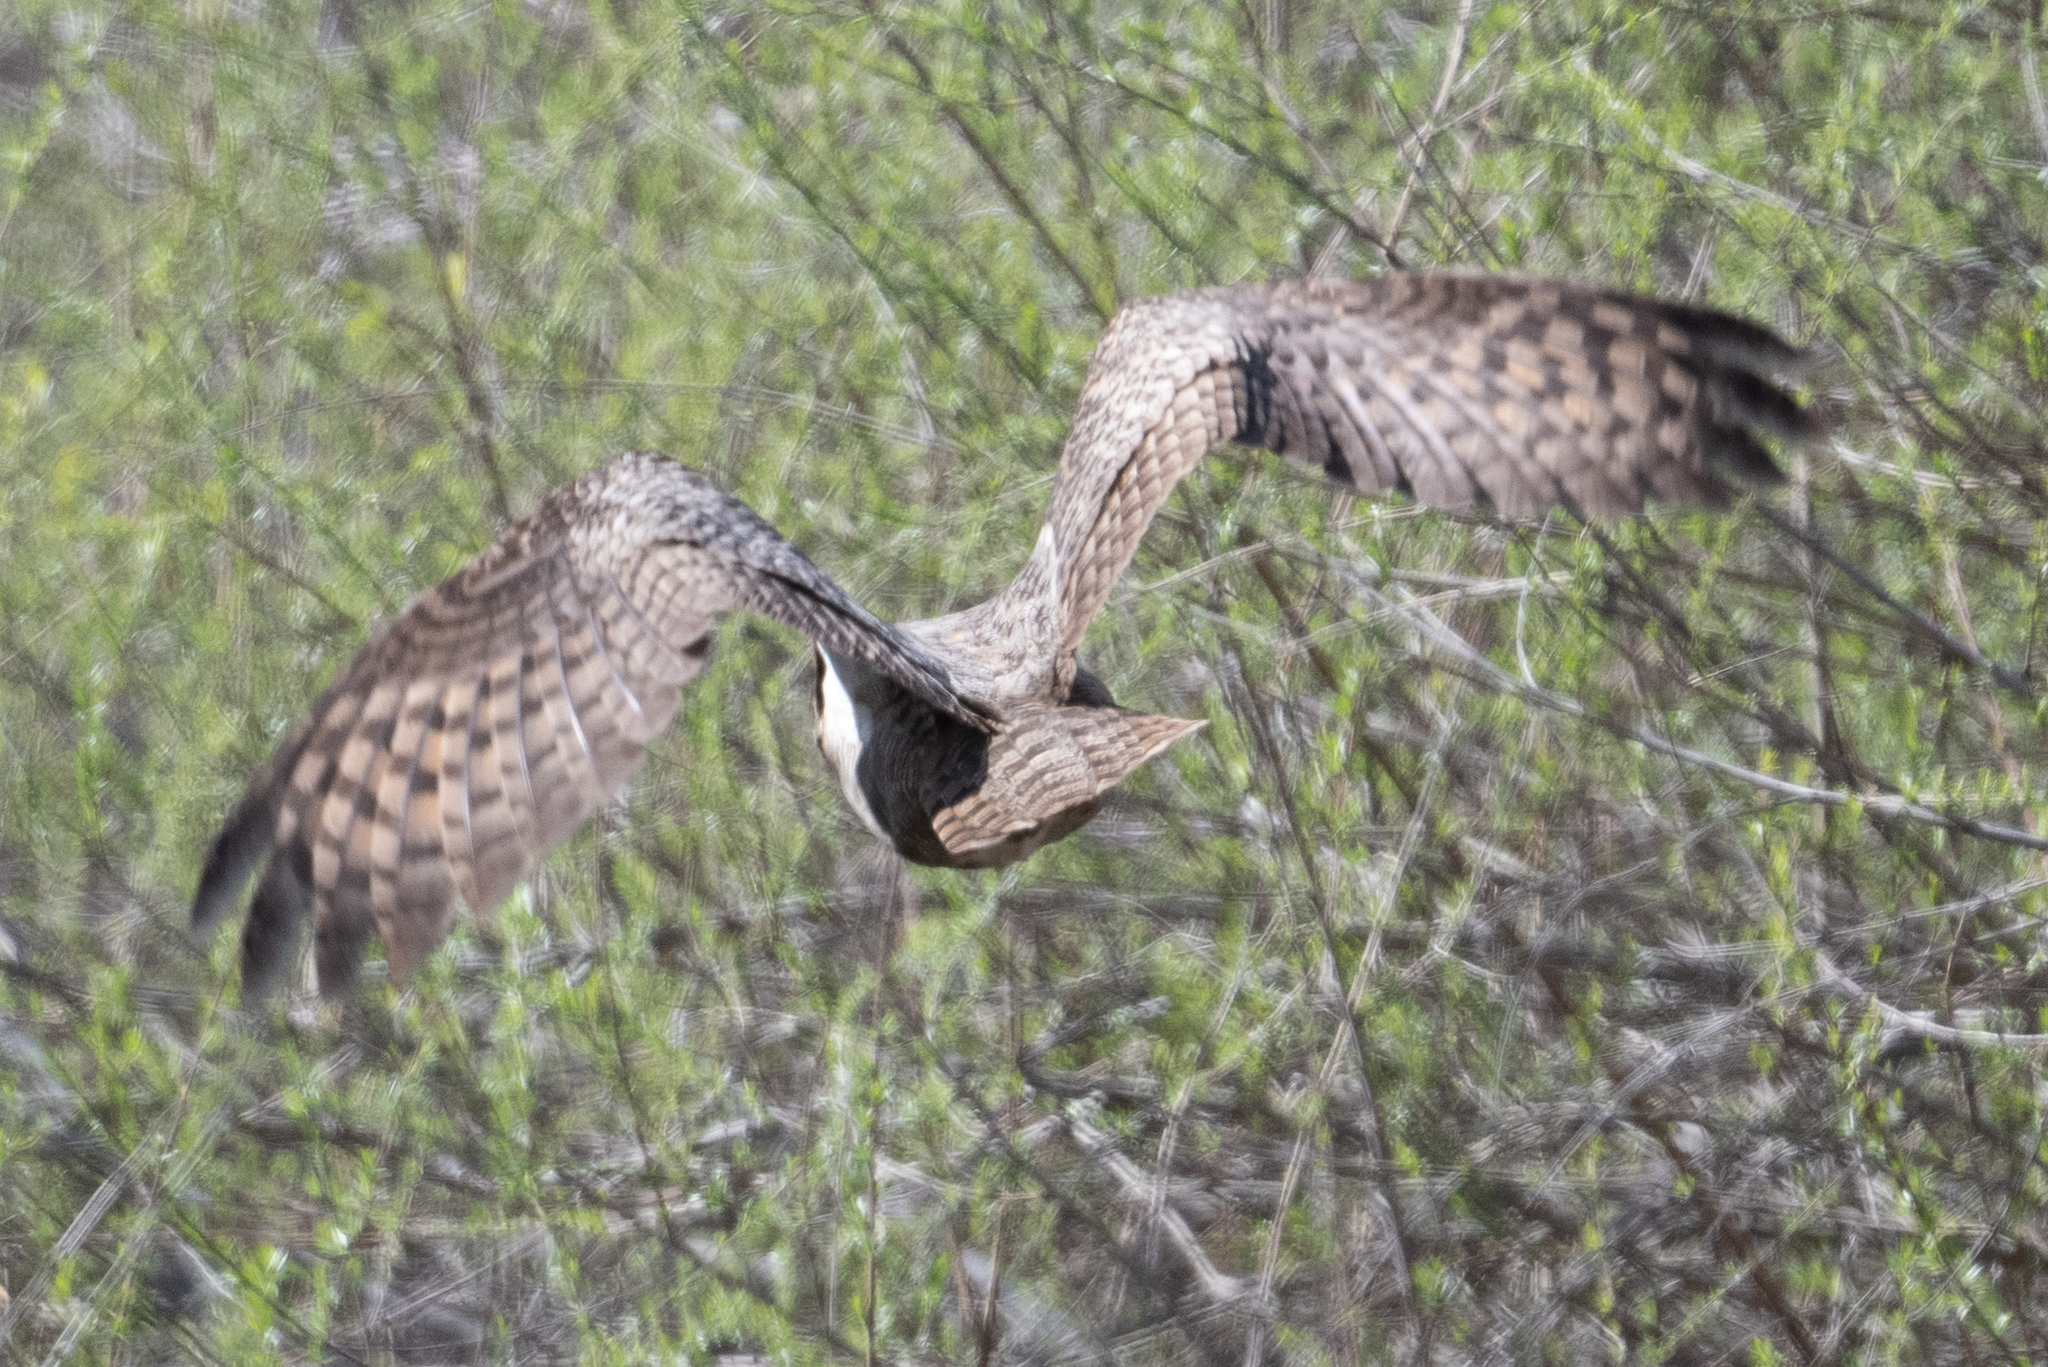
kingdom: Animalia
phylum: Chordata
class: Aves
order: Strigiformes
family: Strigidae
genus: Bubo
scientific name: Bubo virginianus
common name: Great horned owl
